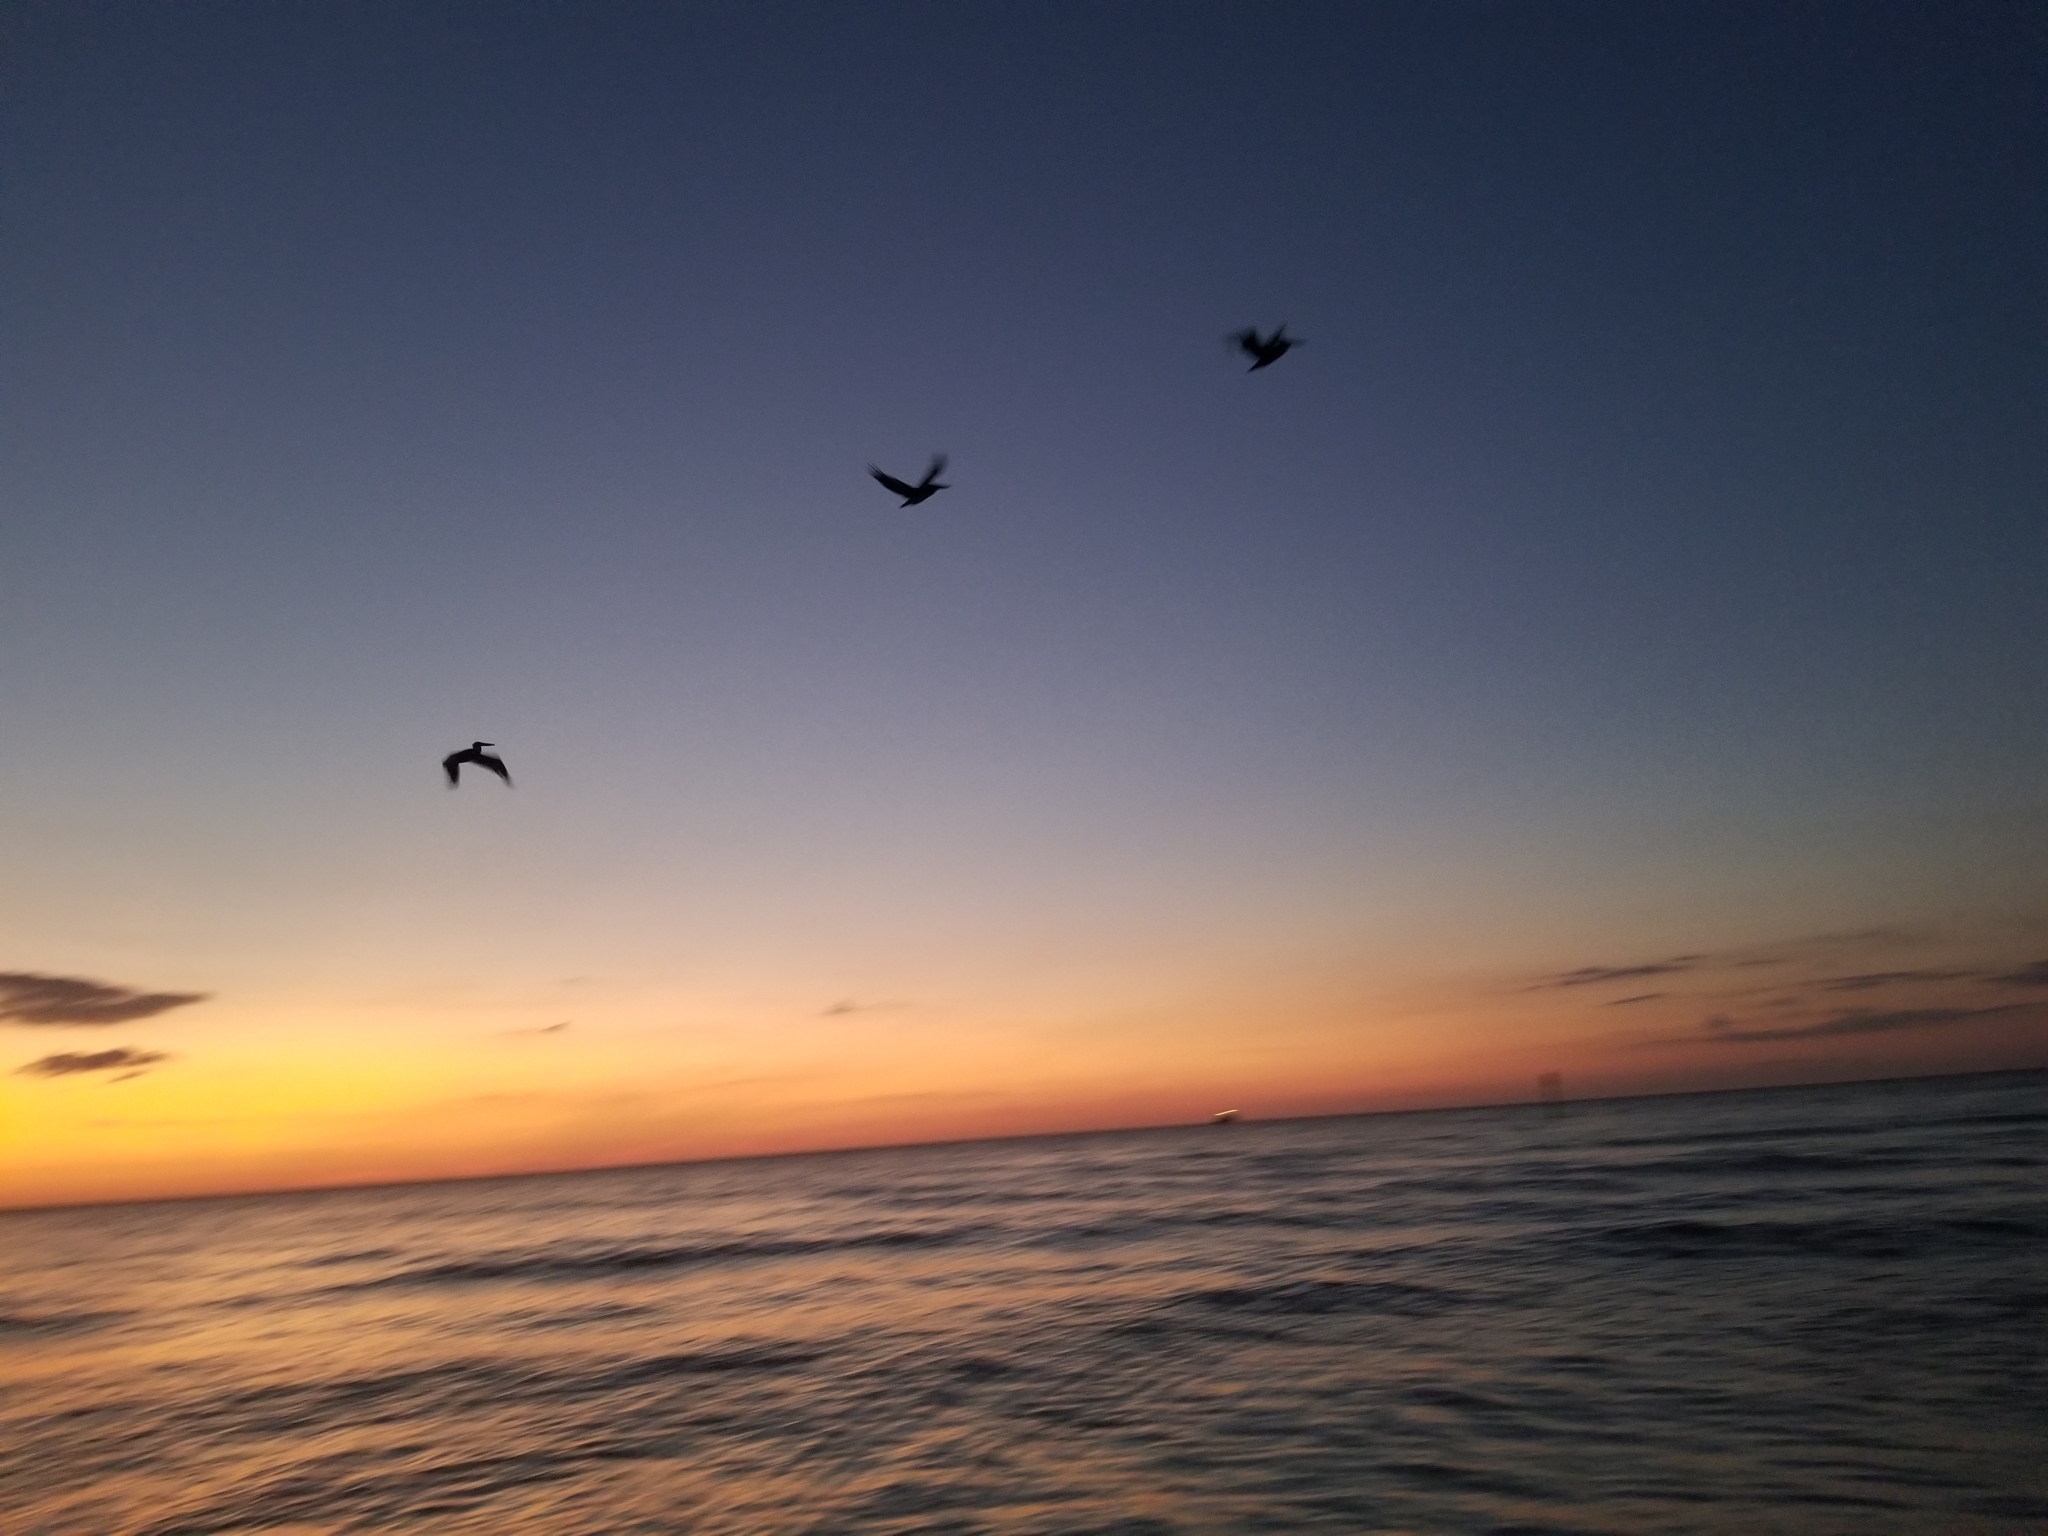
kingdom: Animalia
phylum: Chordata
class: Aves
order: Pelecaniformes
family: Pelecanidae
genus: Pelecanus
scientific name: Pelecanus occidentalis
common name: Brown pelican
